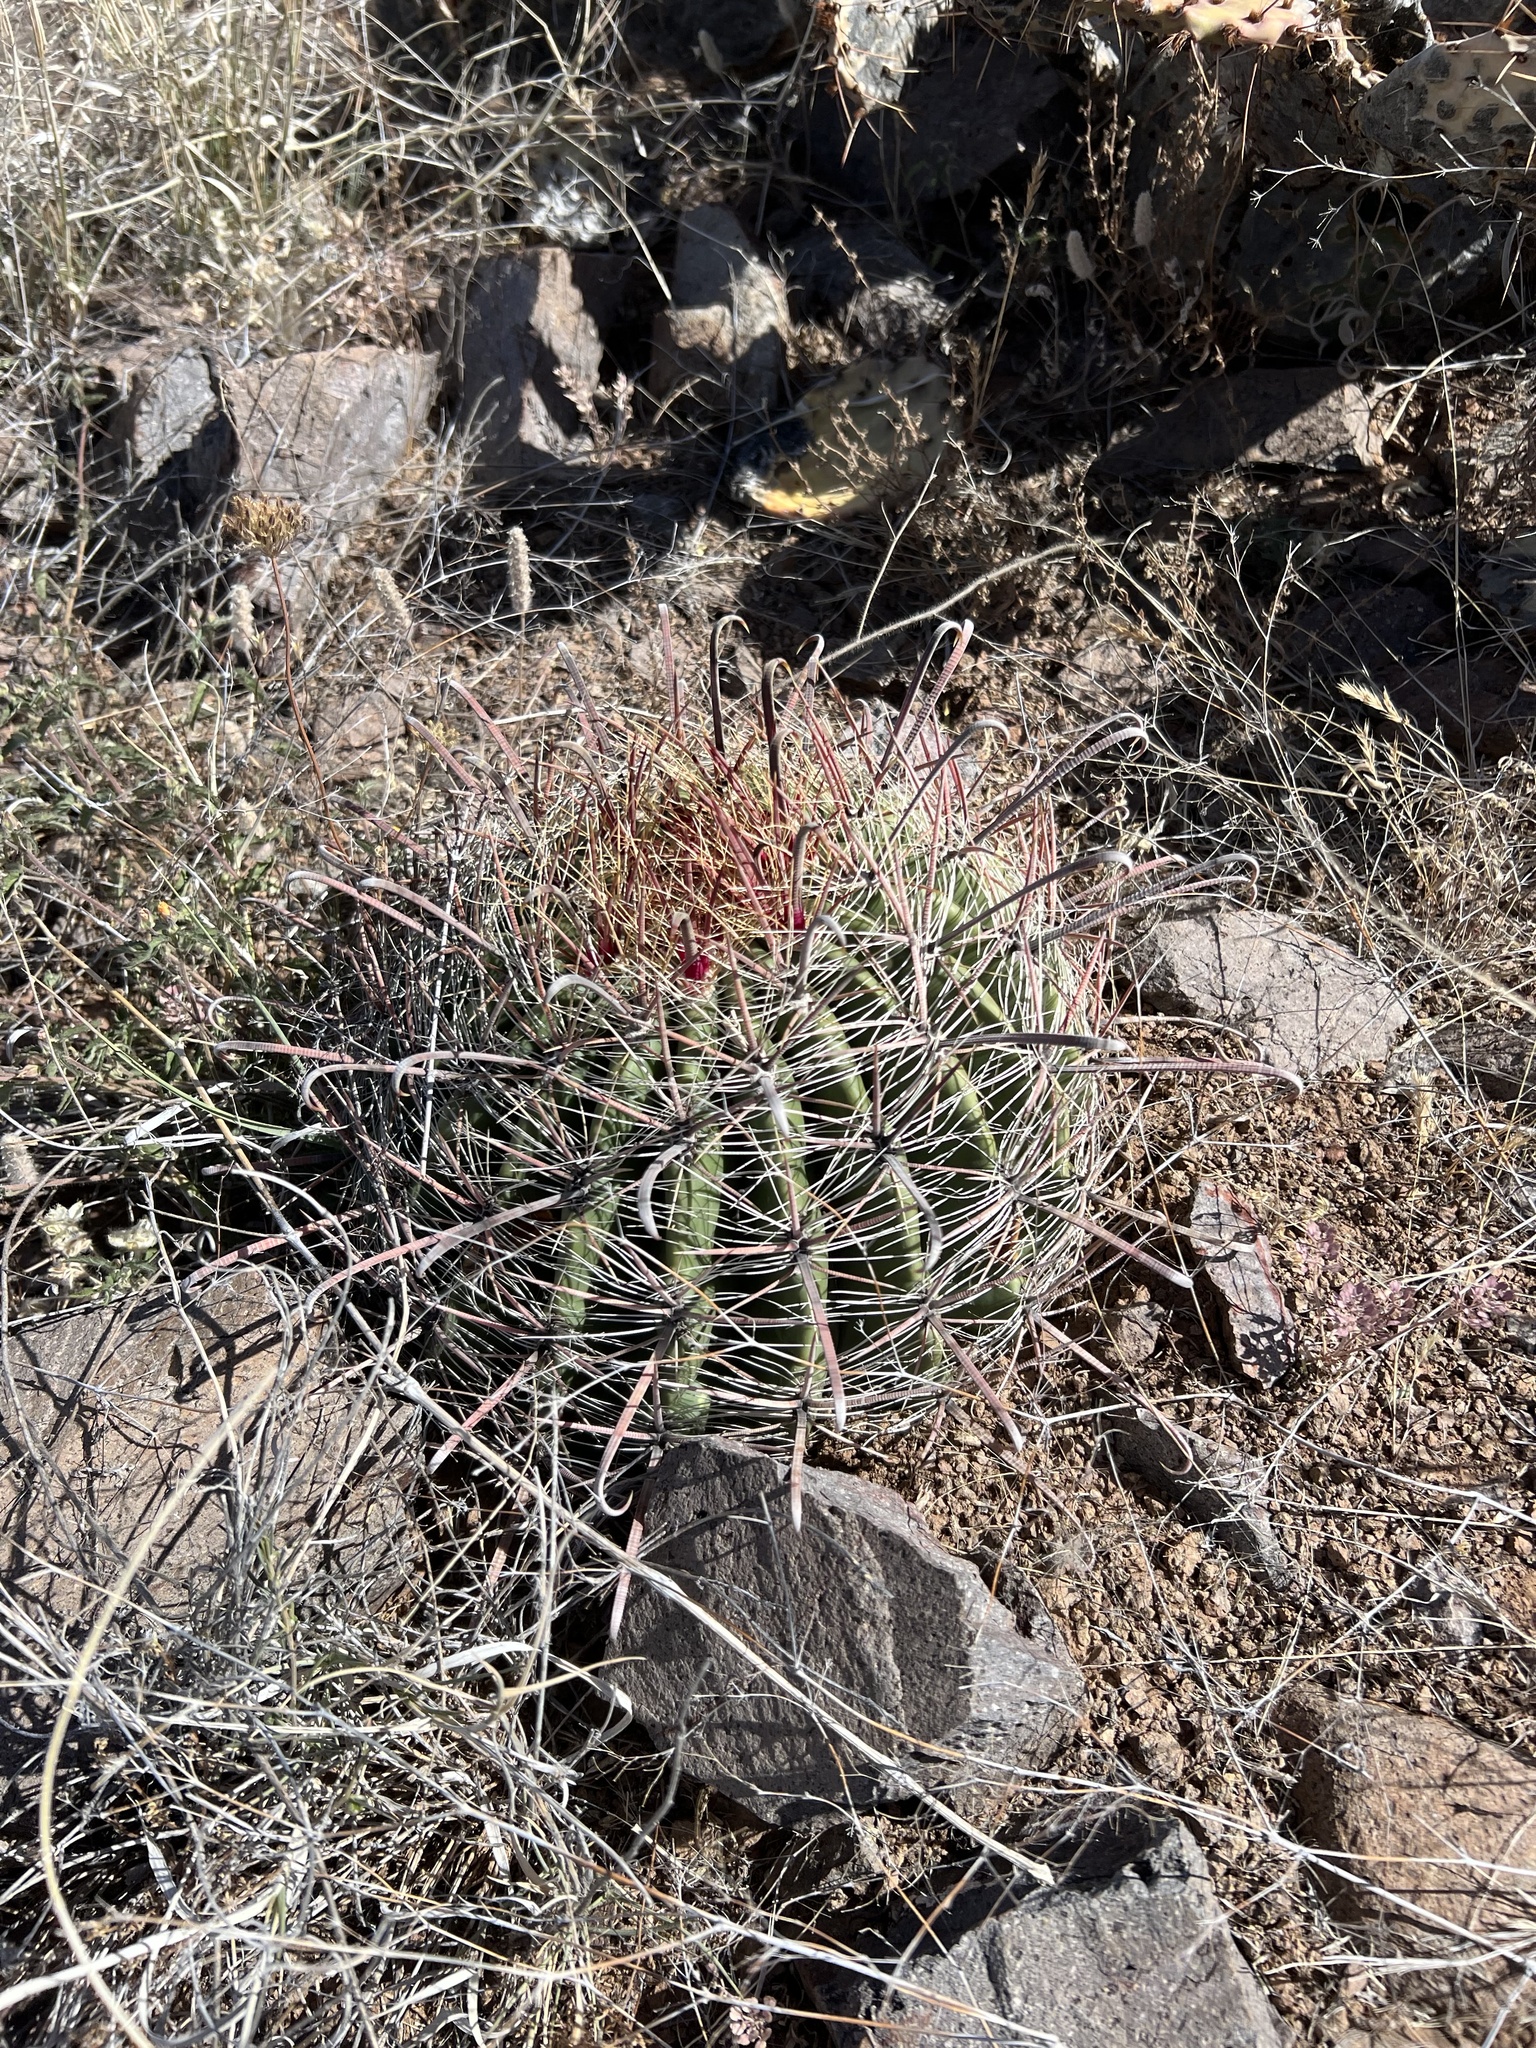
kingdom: Plantae
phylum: Tracheophyta
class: Magnoliopsida
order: Caryophyllales
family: Cactaceae
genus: Ferocactus
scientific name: Ferocactus wislizeni
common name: Candy barrel cactus
